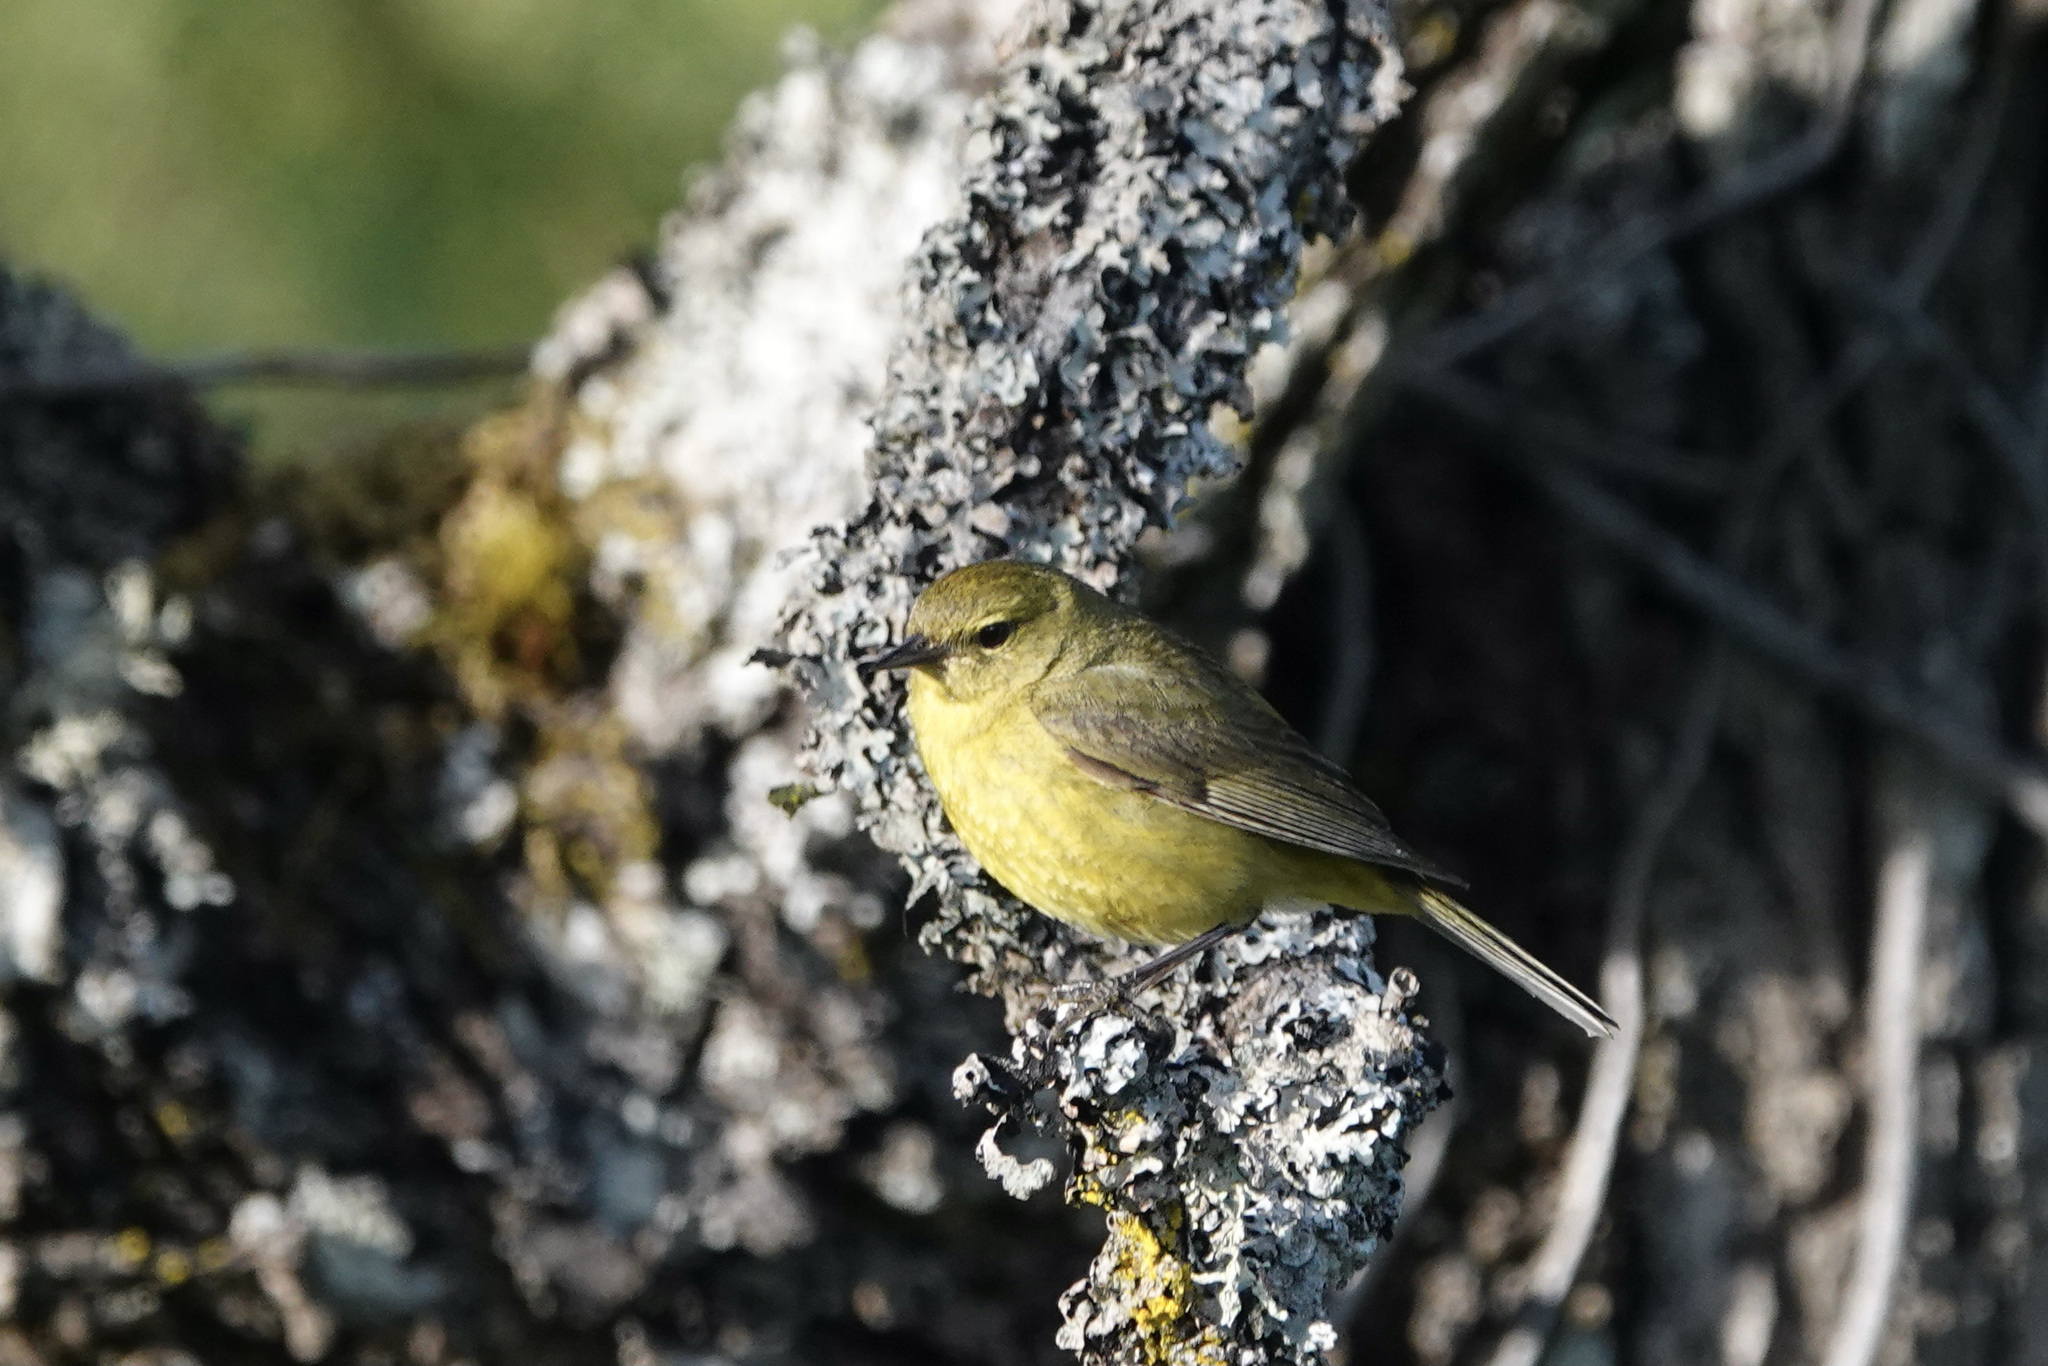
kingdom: Animalia
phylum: Chordata
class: Aves
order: Passeriformes
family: Parulidae
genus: Leiothlypis
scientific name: Leiothlypis celata
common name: Orange-crowned warbler
